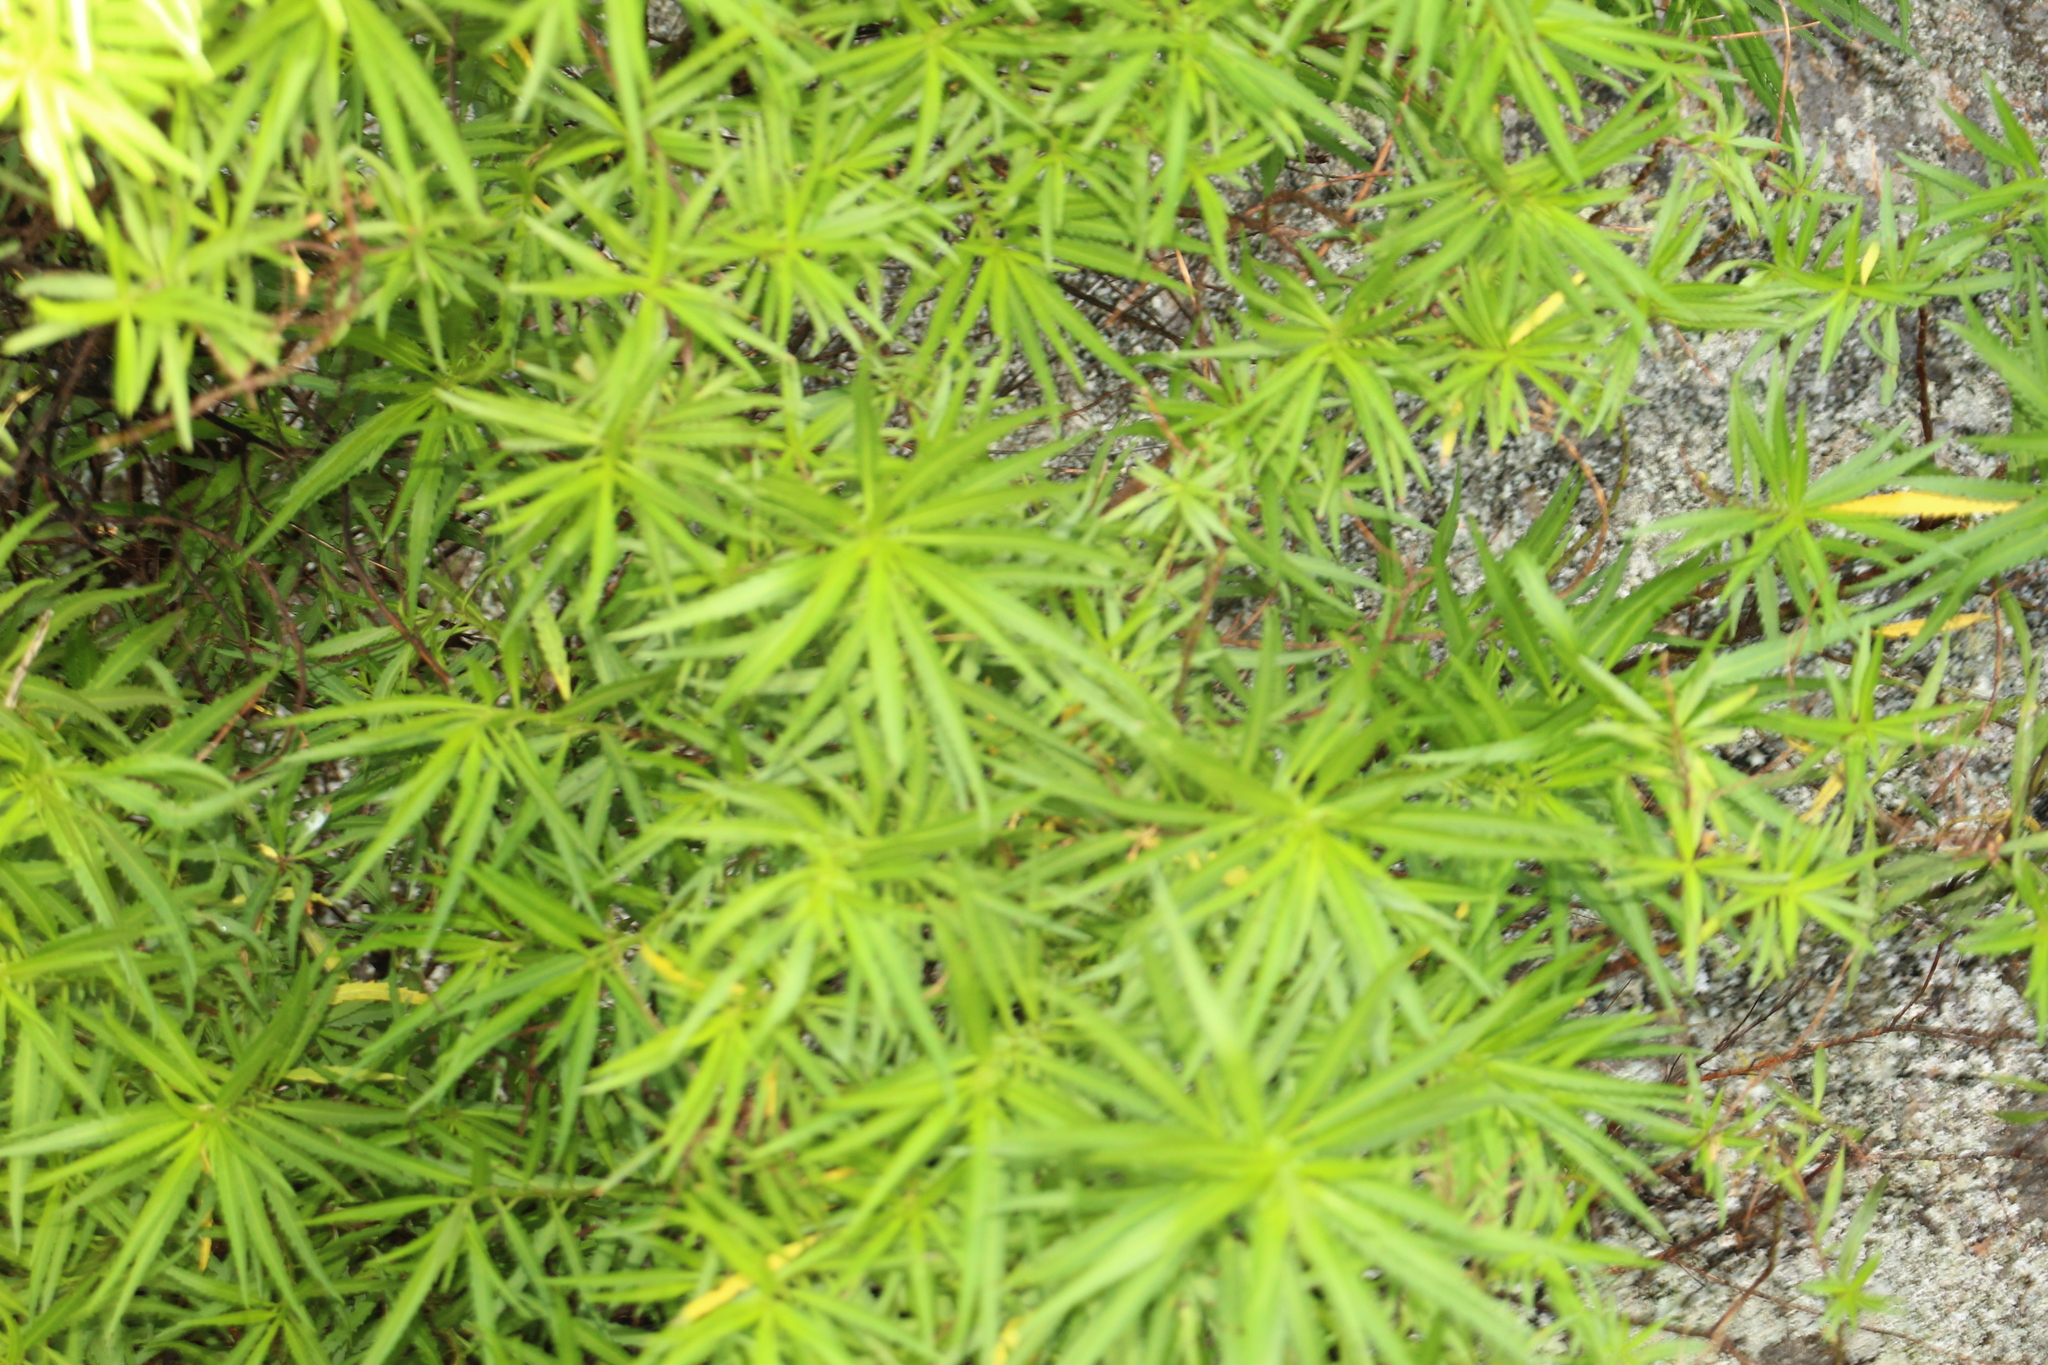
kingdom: Plantae
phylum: Tracheophyta
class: Magnoliopsida
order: Saxifragales
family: Haloragaceae
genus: Glischrocaryon
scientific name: Glischrocaryon racemosum
